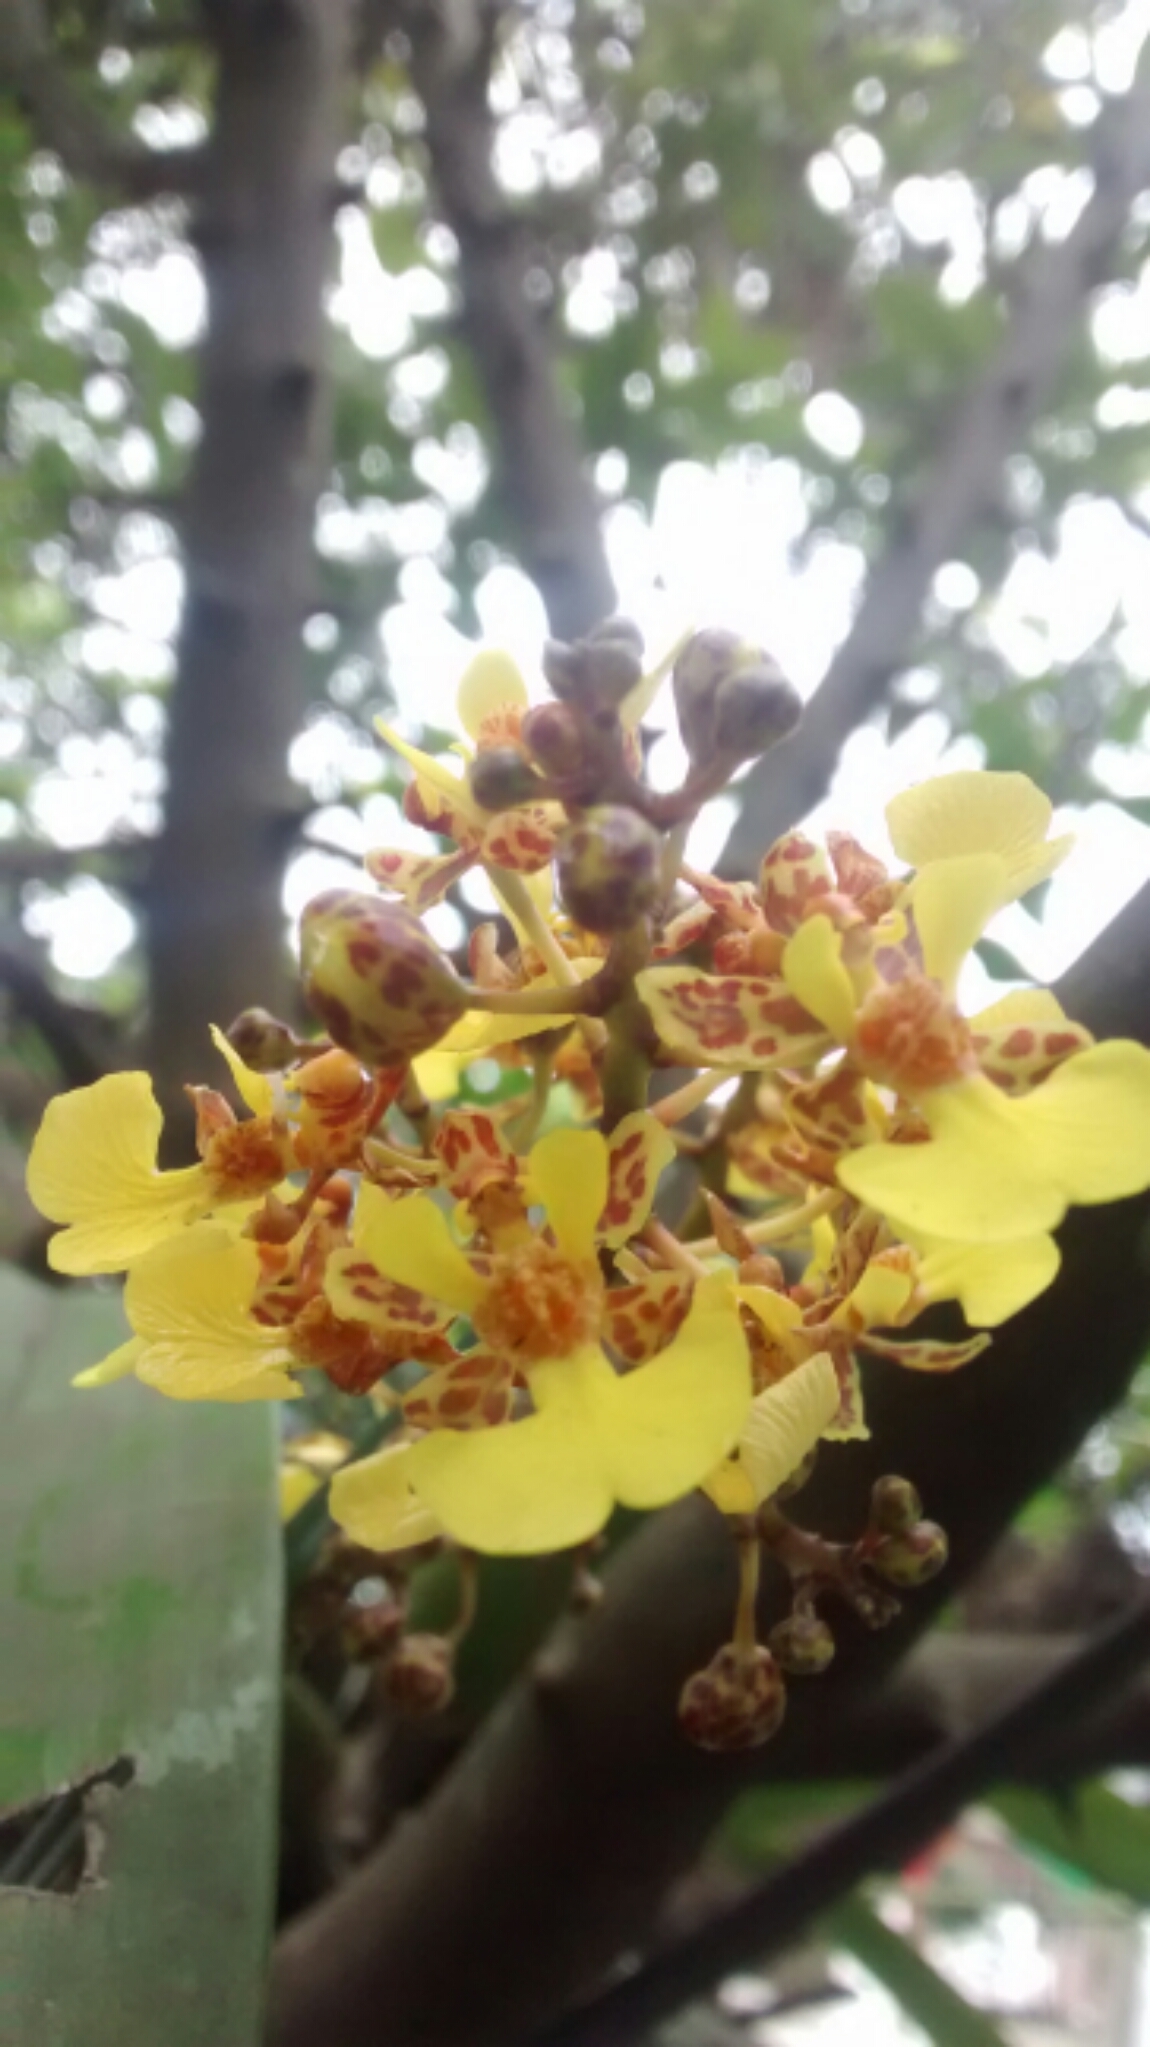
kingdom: Plantae
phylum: Tracheophyta
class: Liliopsida
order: Asparagales
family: Orchidaceae
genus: Trichocentrum
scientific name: Trichocentrum cebolleta
